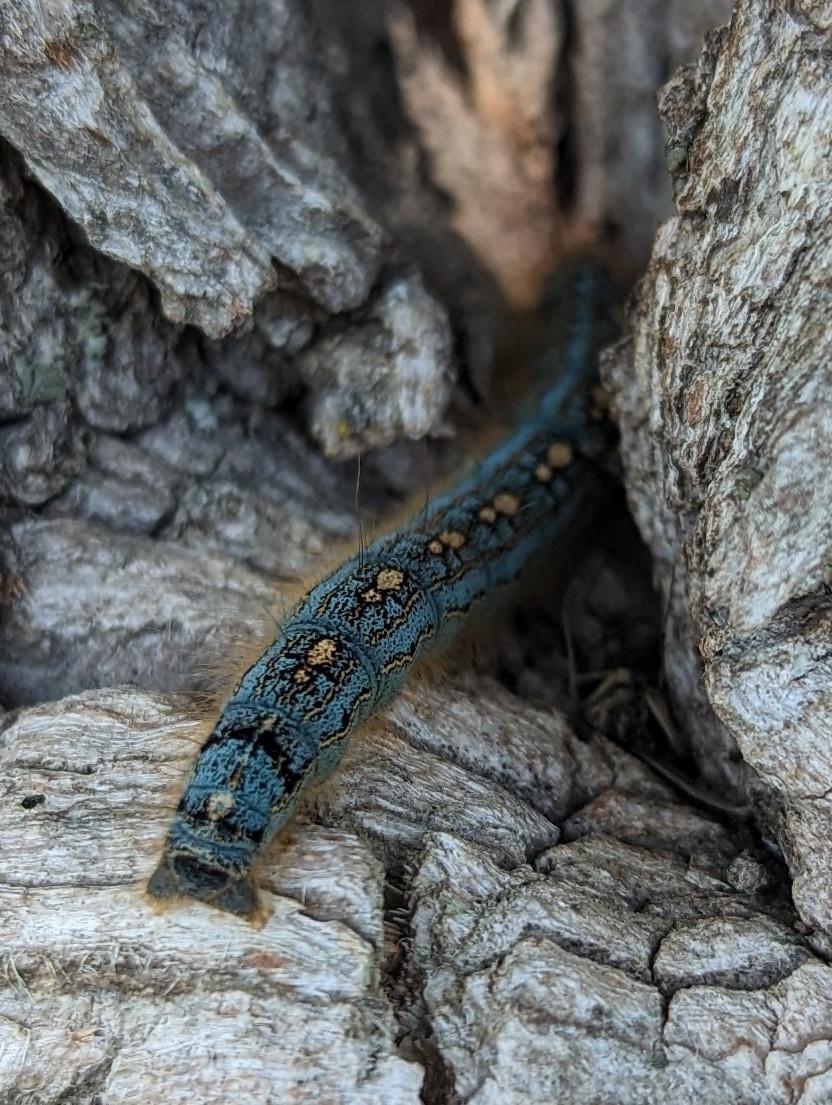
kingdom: Animalia
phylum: Arthropoda
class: Insecta
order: Lepidoptera
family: Lasiocampidae
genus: Malacosoma
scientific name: Malacosoma disstria
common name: Forest tent caterpillar
